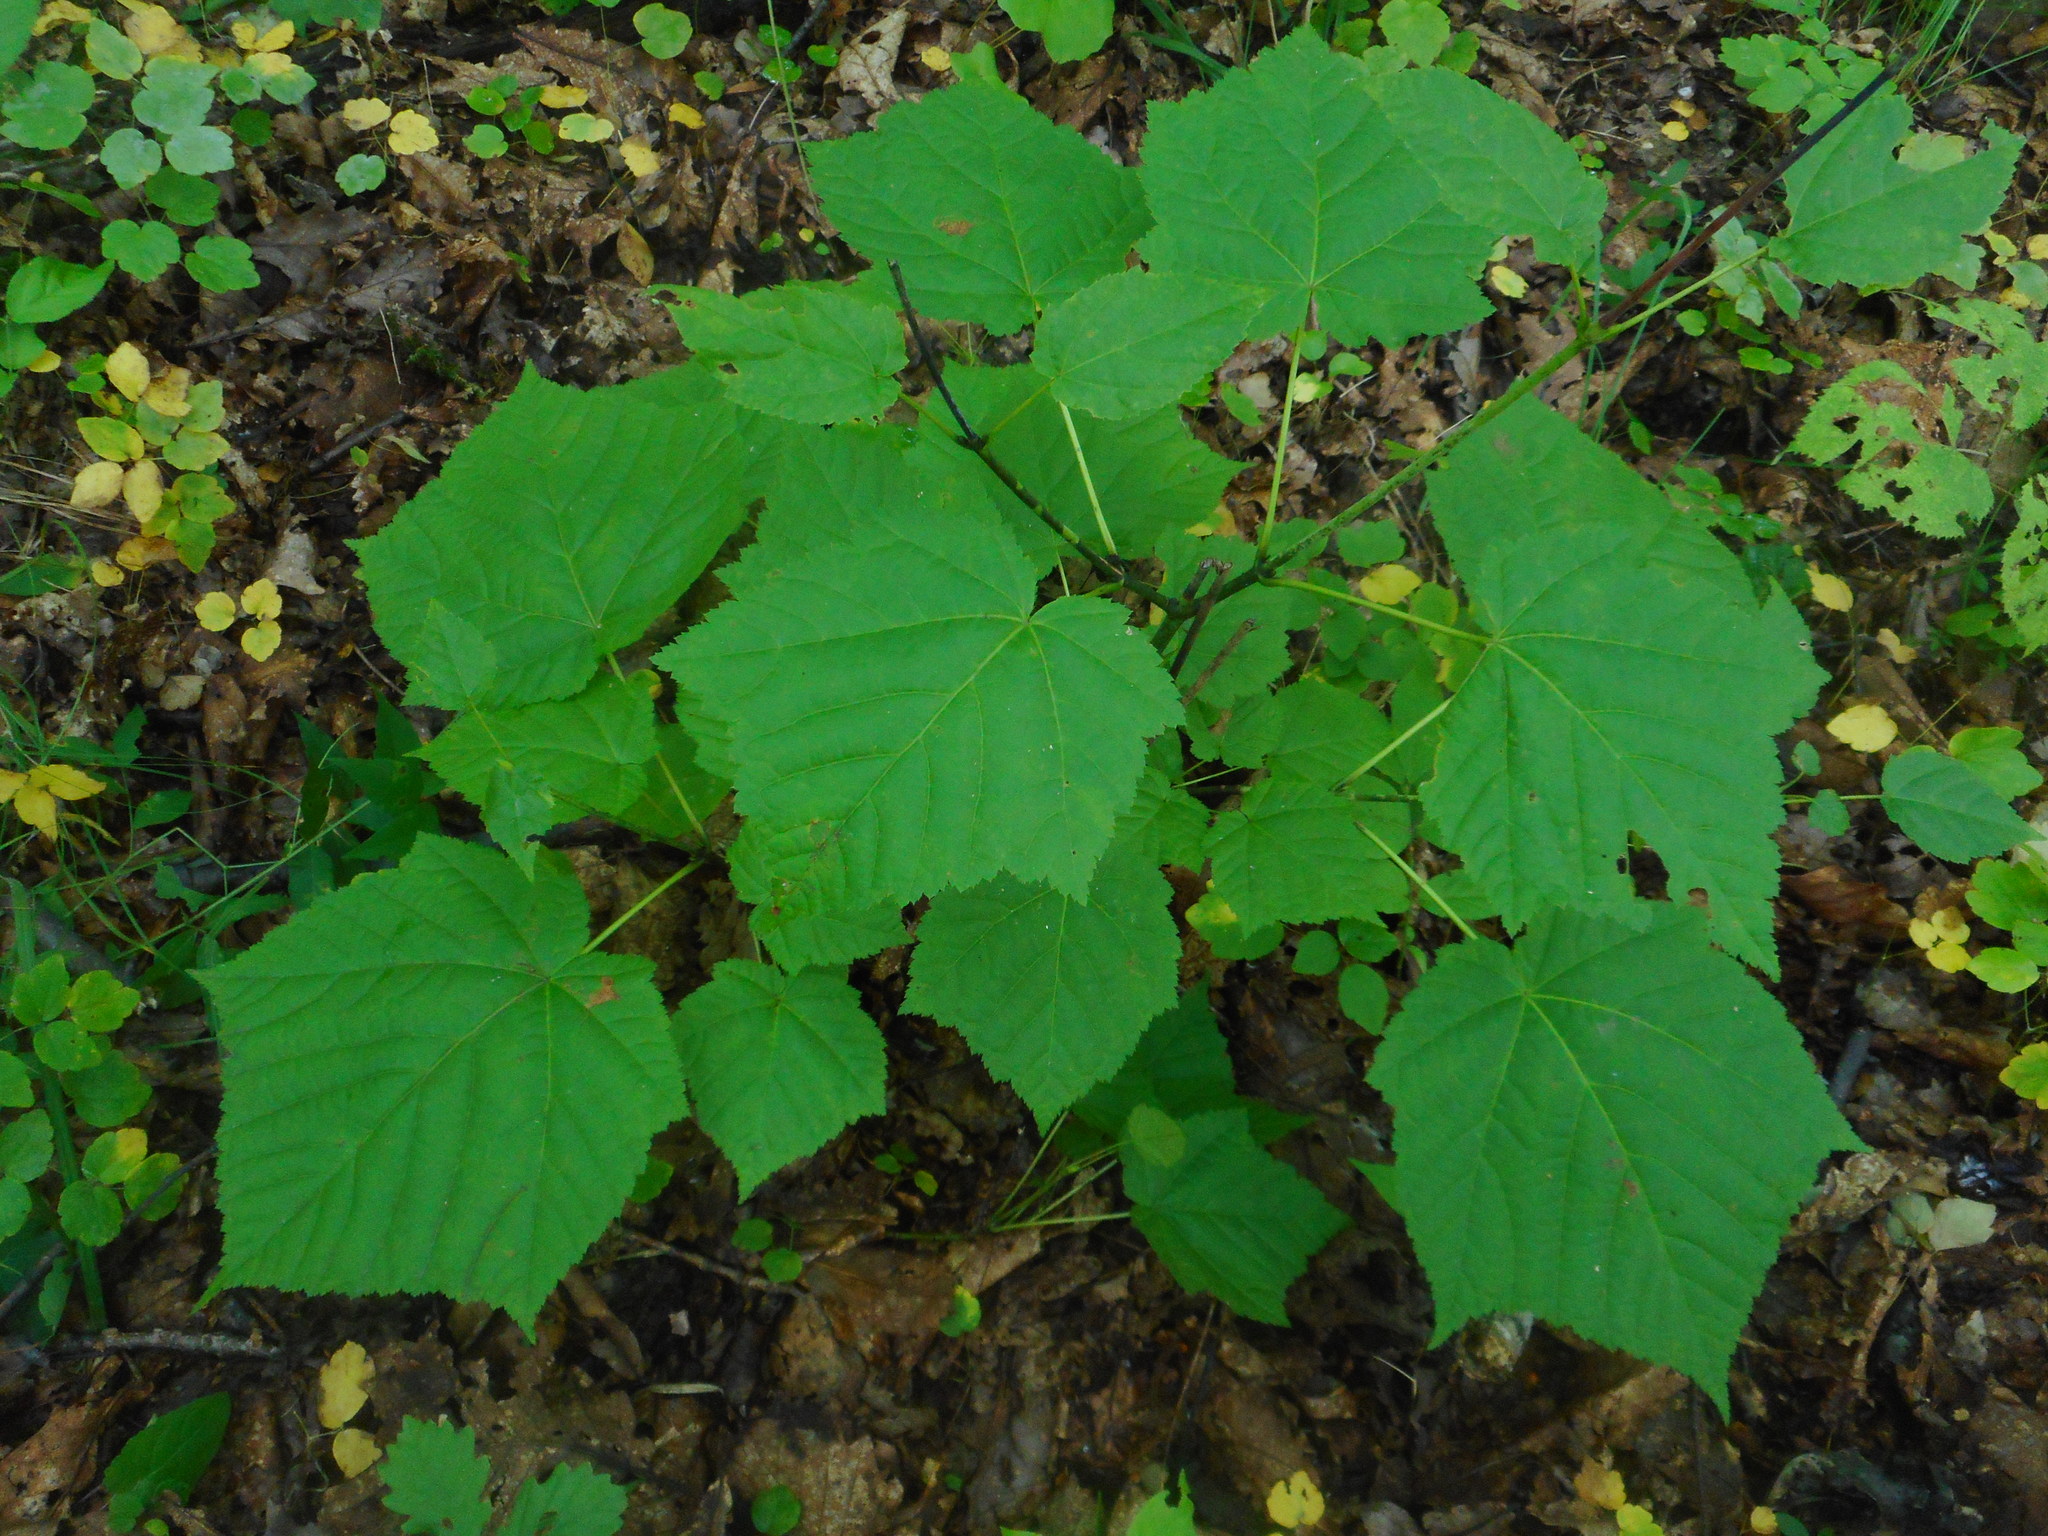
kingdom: Plantae
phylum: Tracheophyta
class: Magnoliopsida
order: Sapindales
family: Sapindaceae
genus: Acer
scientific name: Acer tegmentosum
